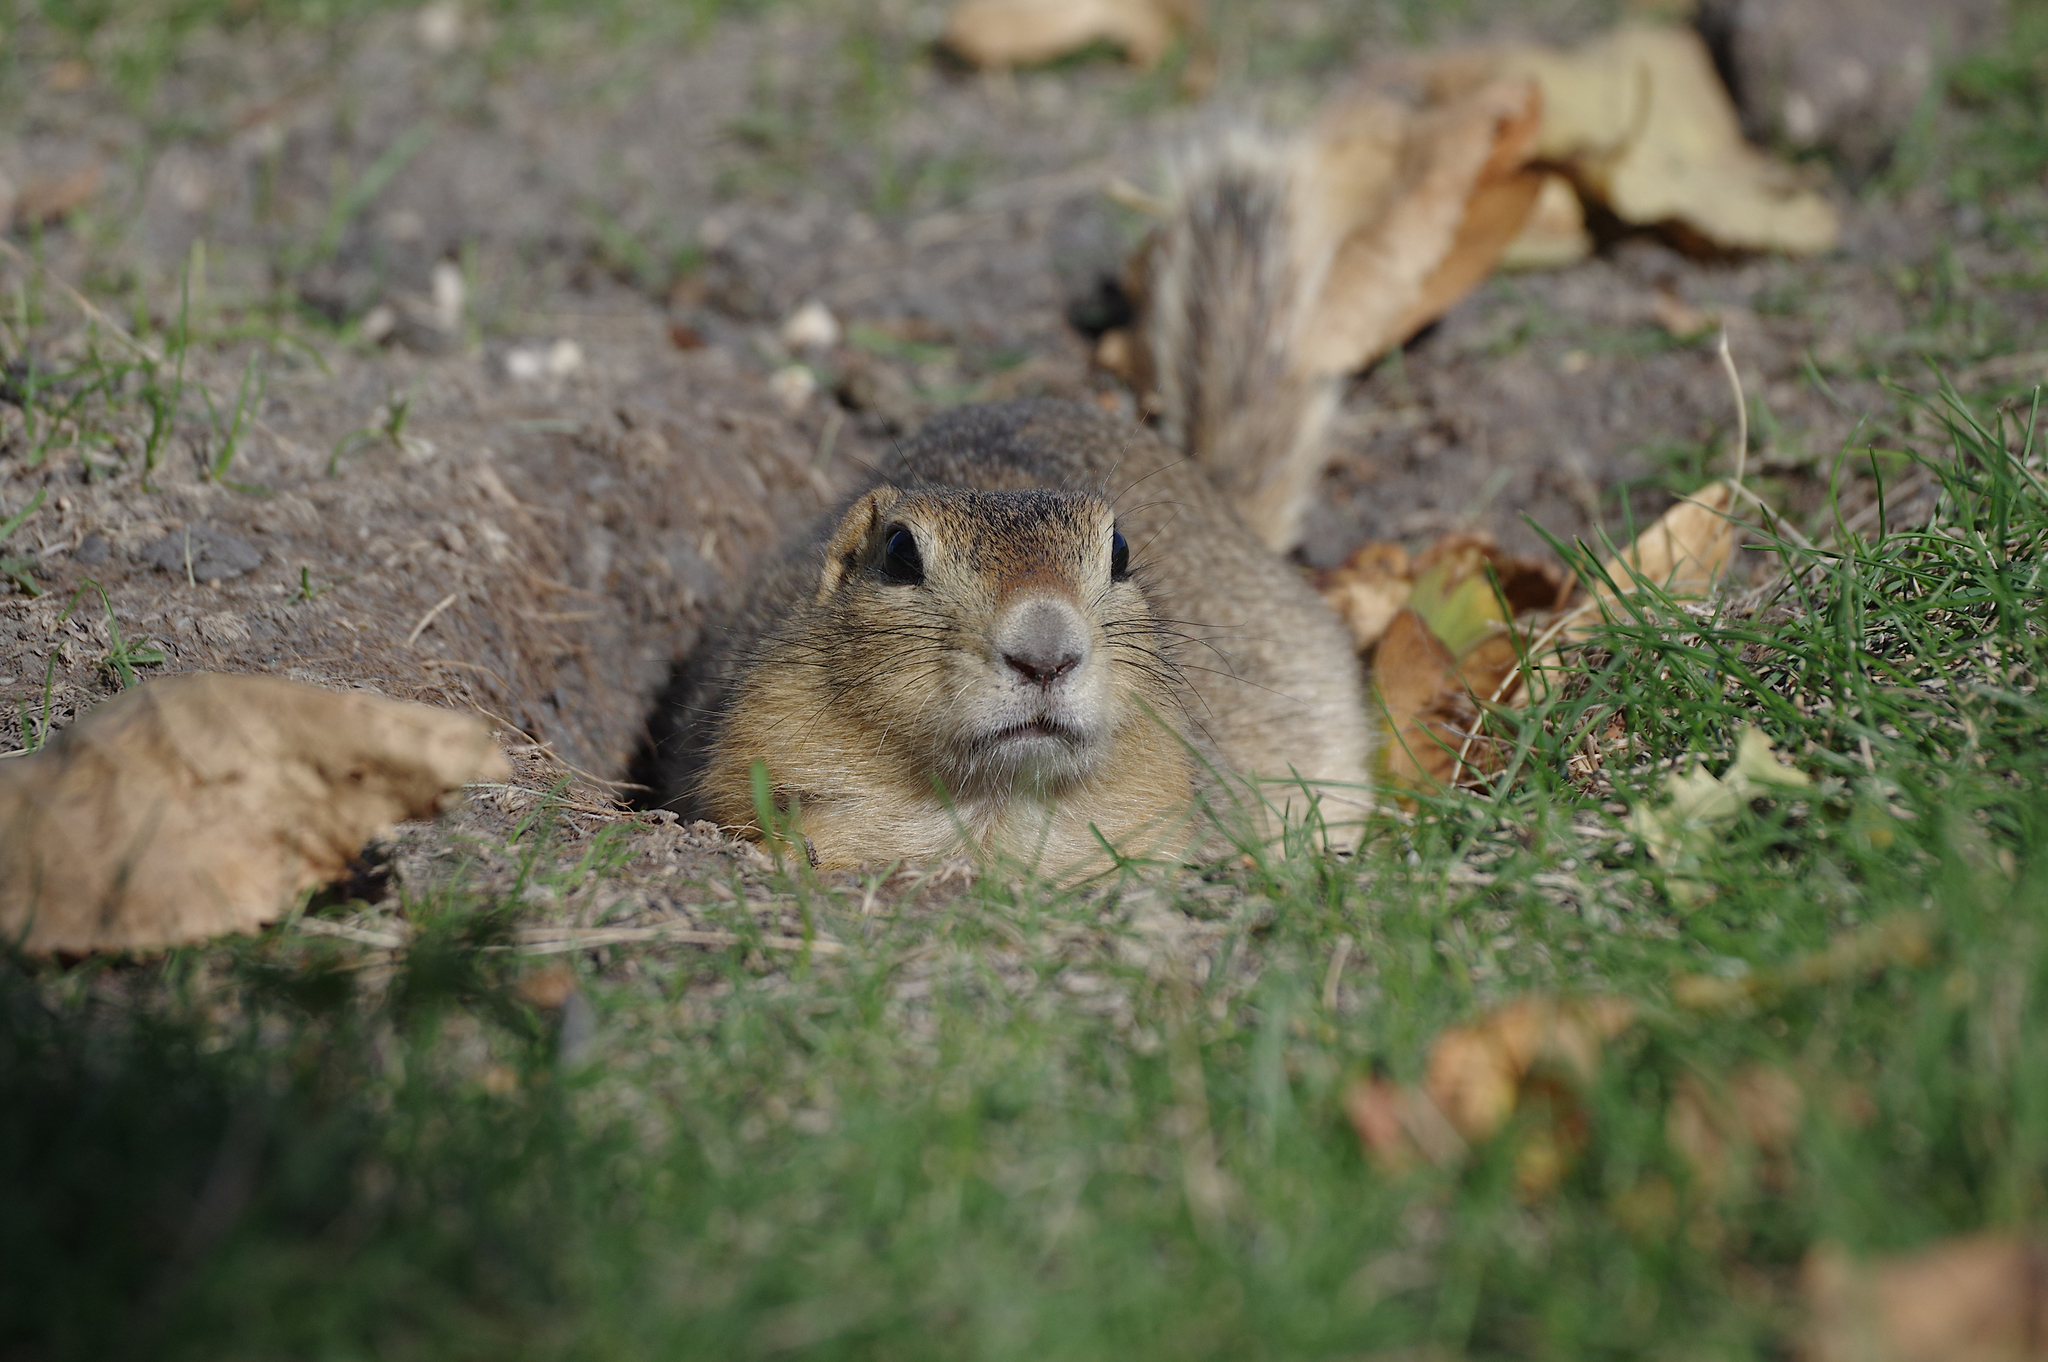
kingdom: Animalia
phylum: Chordata
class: Mammalia
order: Rodentia
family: Sciuridae
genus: Urocitellus
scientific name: Urocitellus richardsonii
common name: Richardson's ground squirrel
